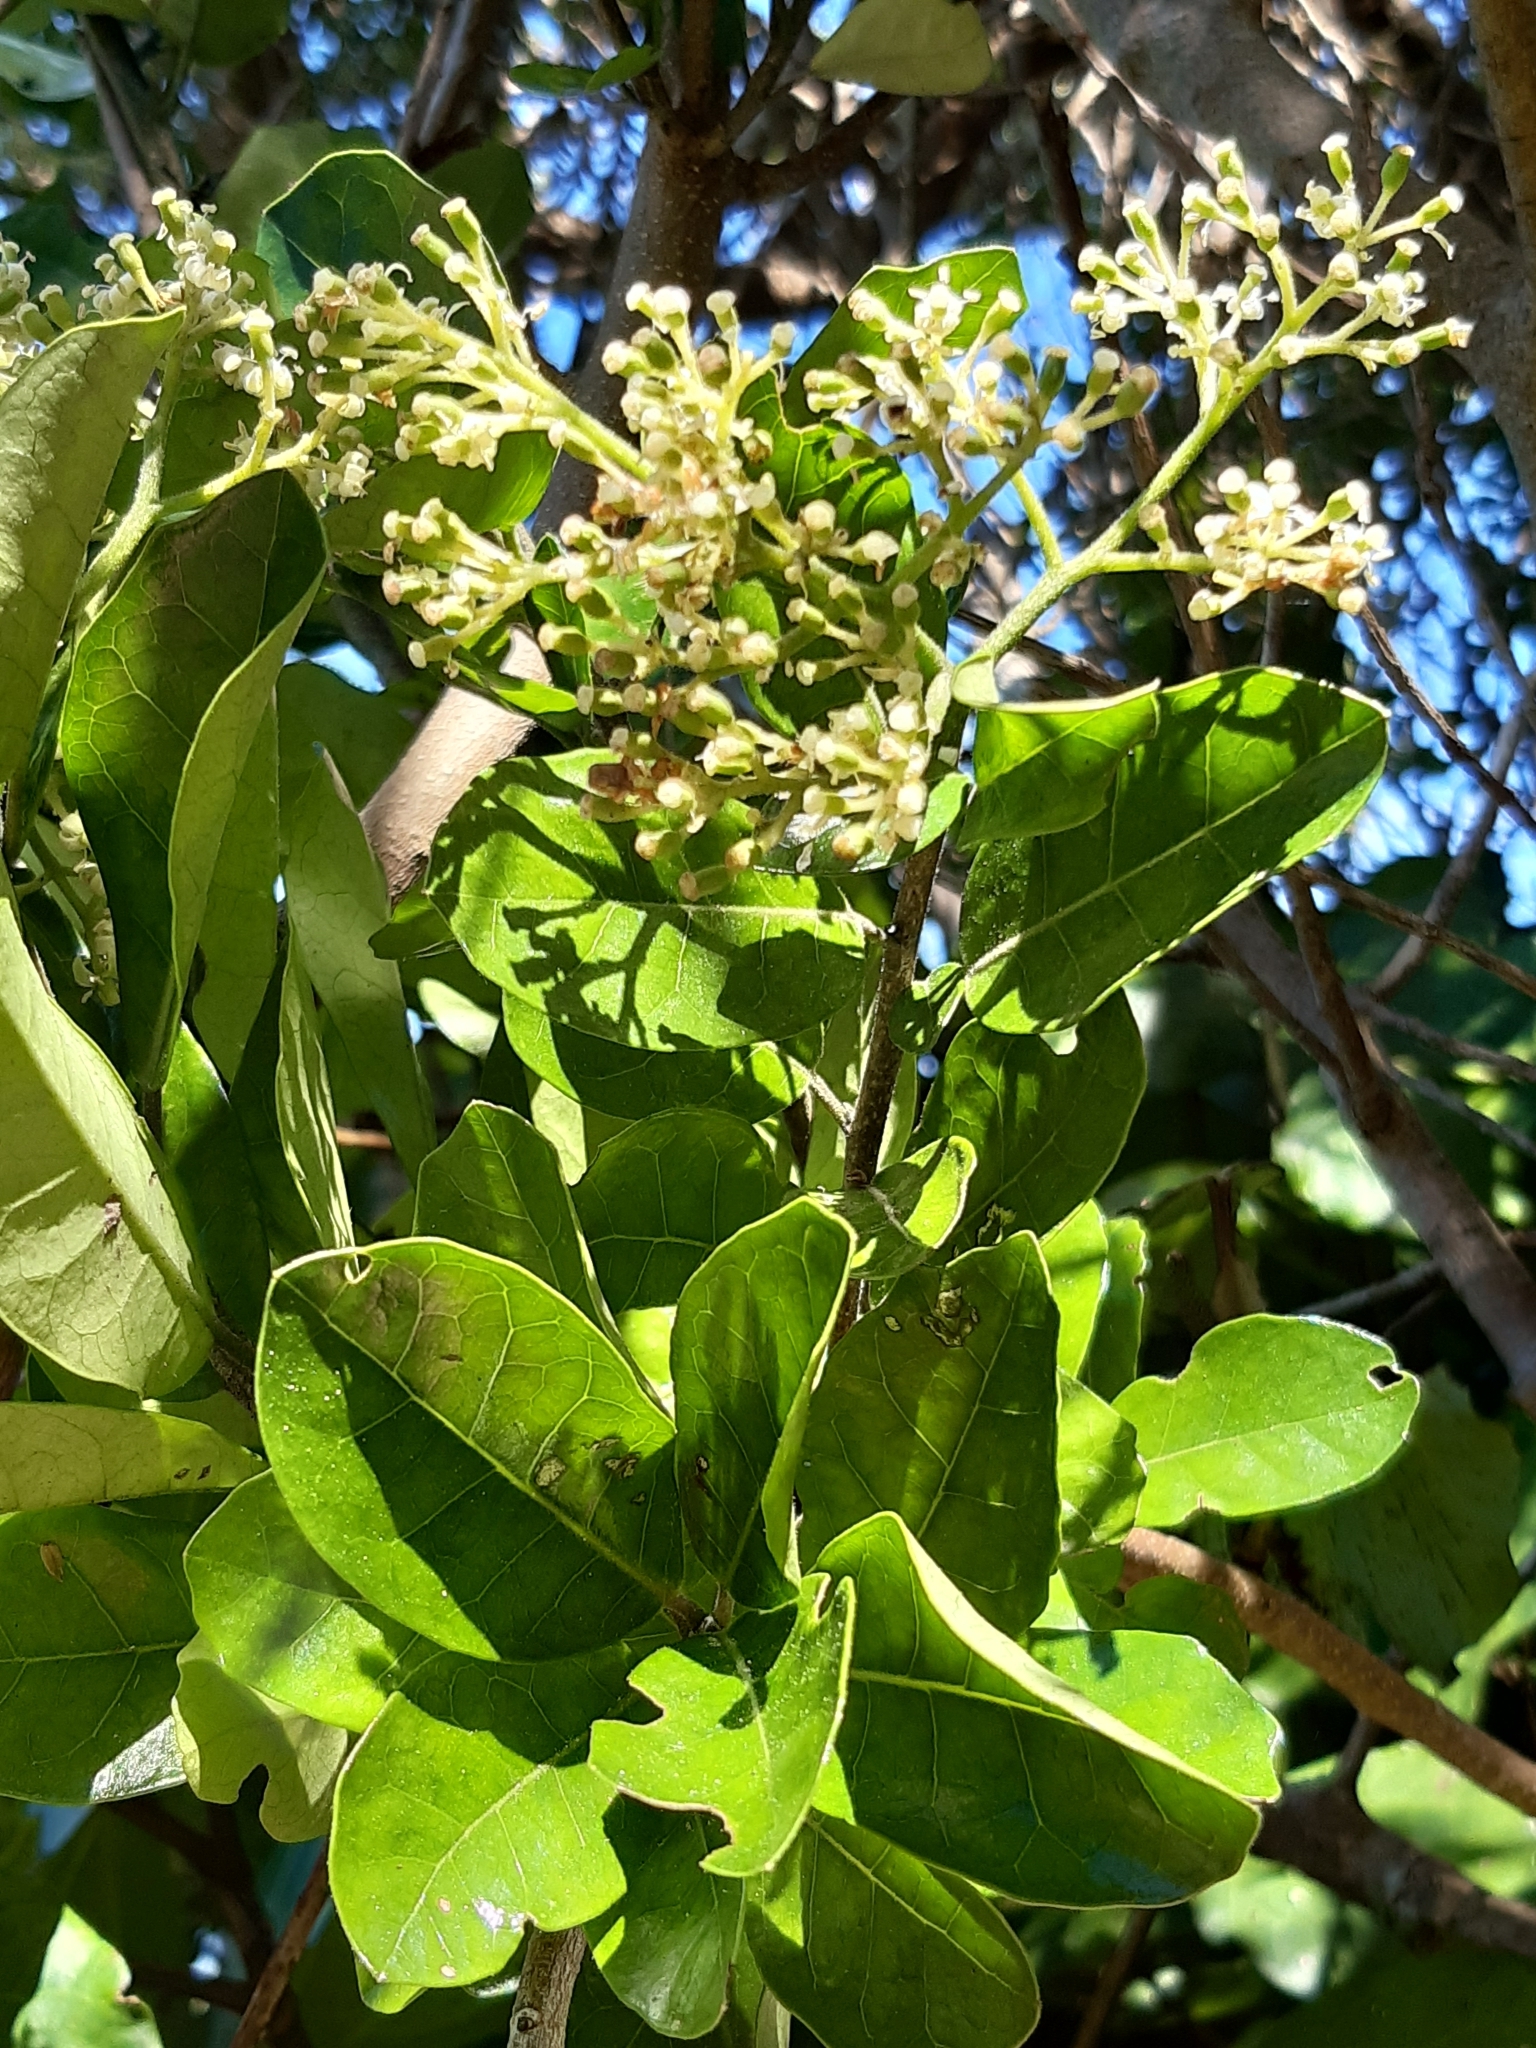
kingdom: Plantae
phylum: Tracheophyta
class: Magnoliopsida
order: Apiales
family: Pennantiaceae
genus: Pennantia
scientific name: Pennantia corymbosa
